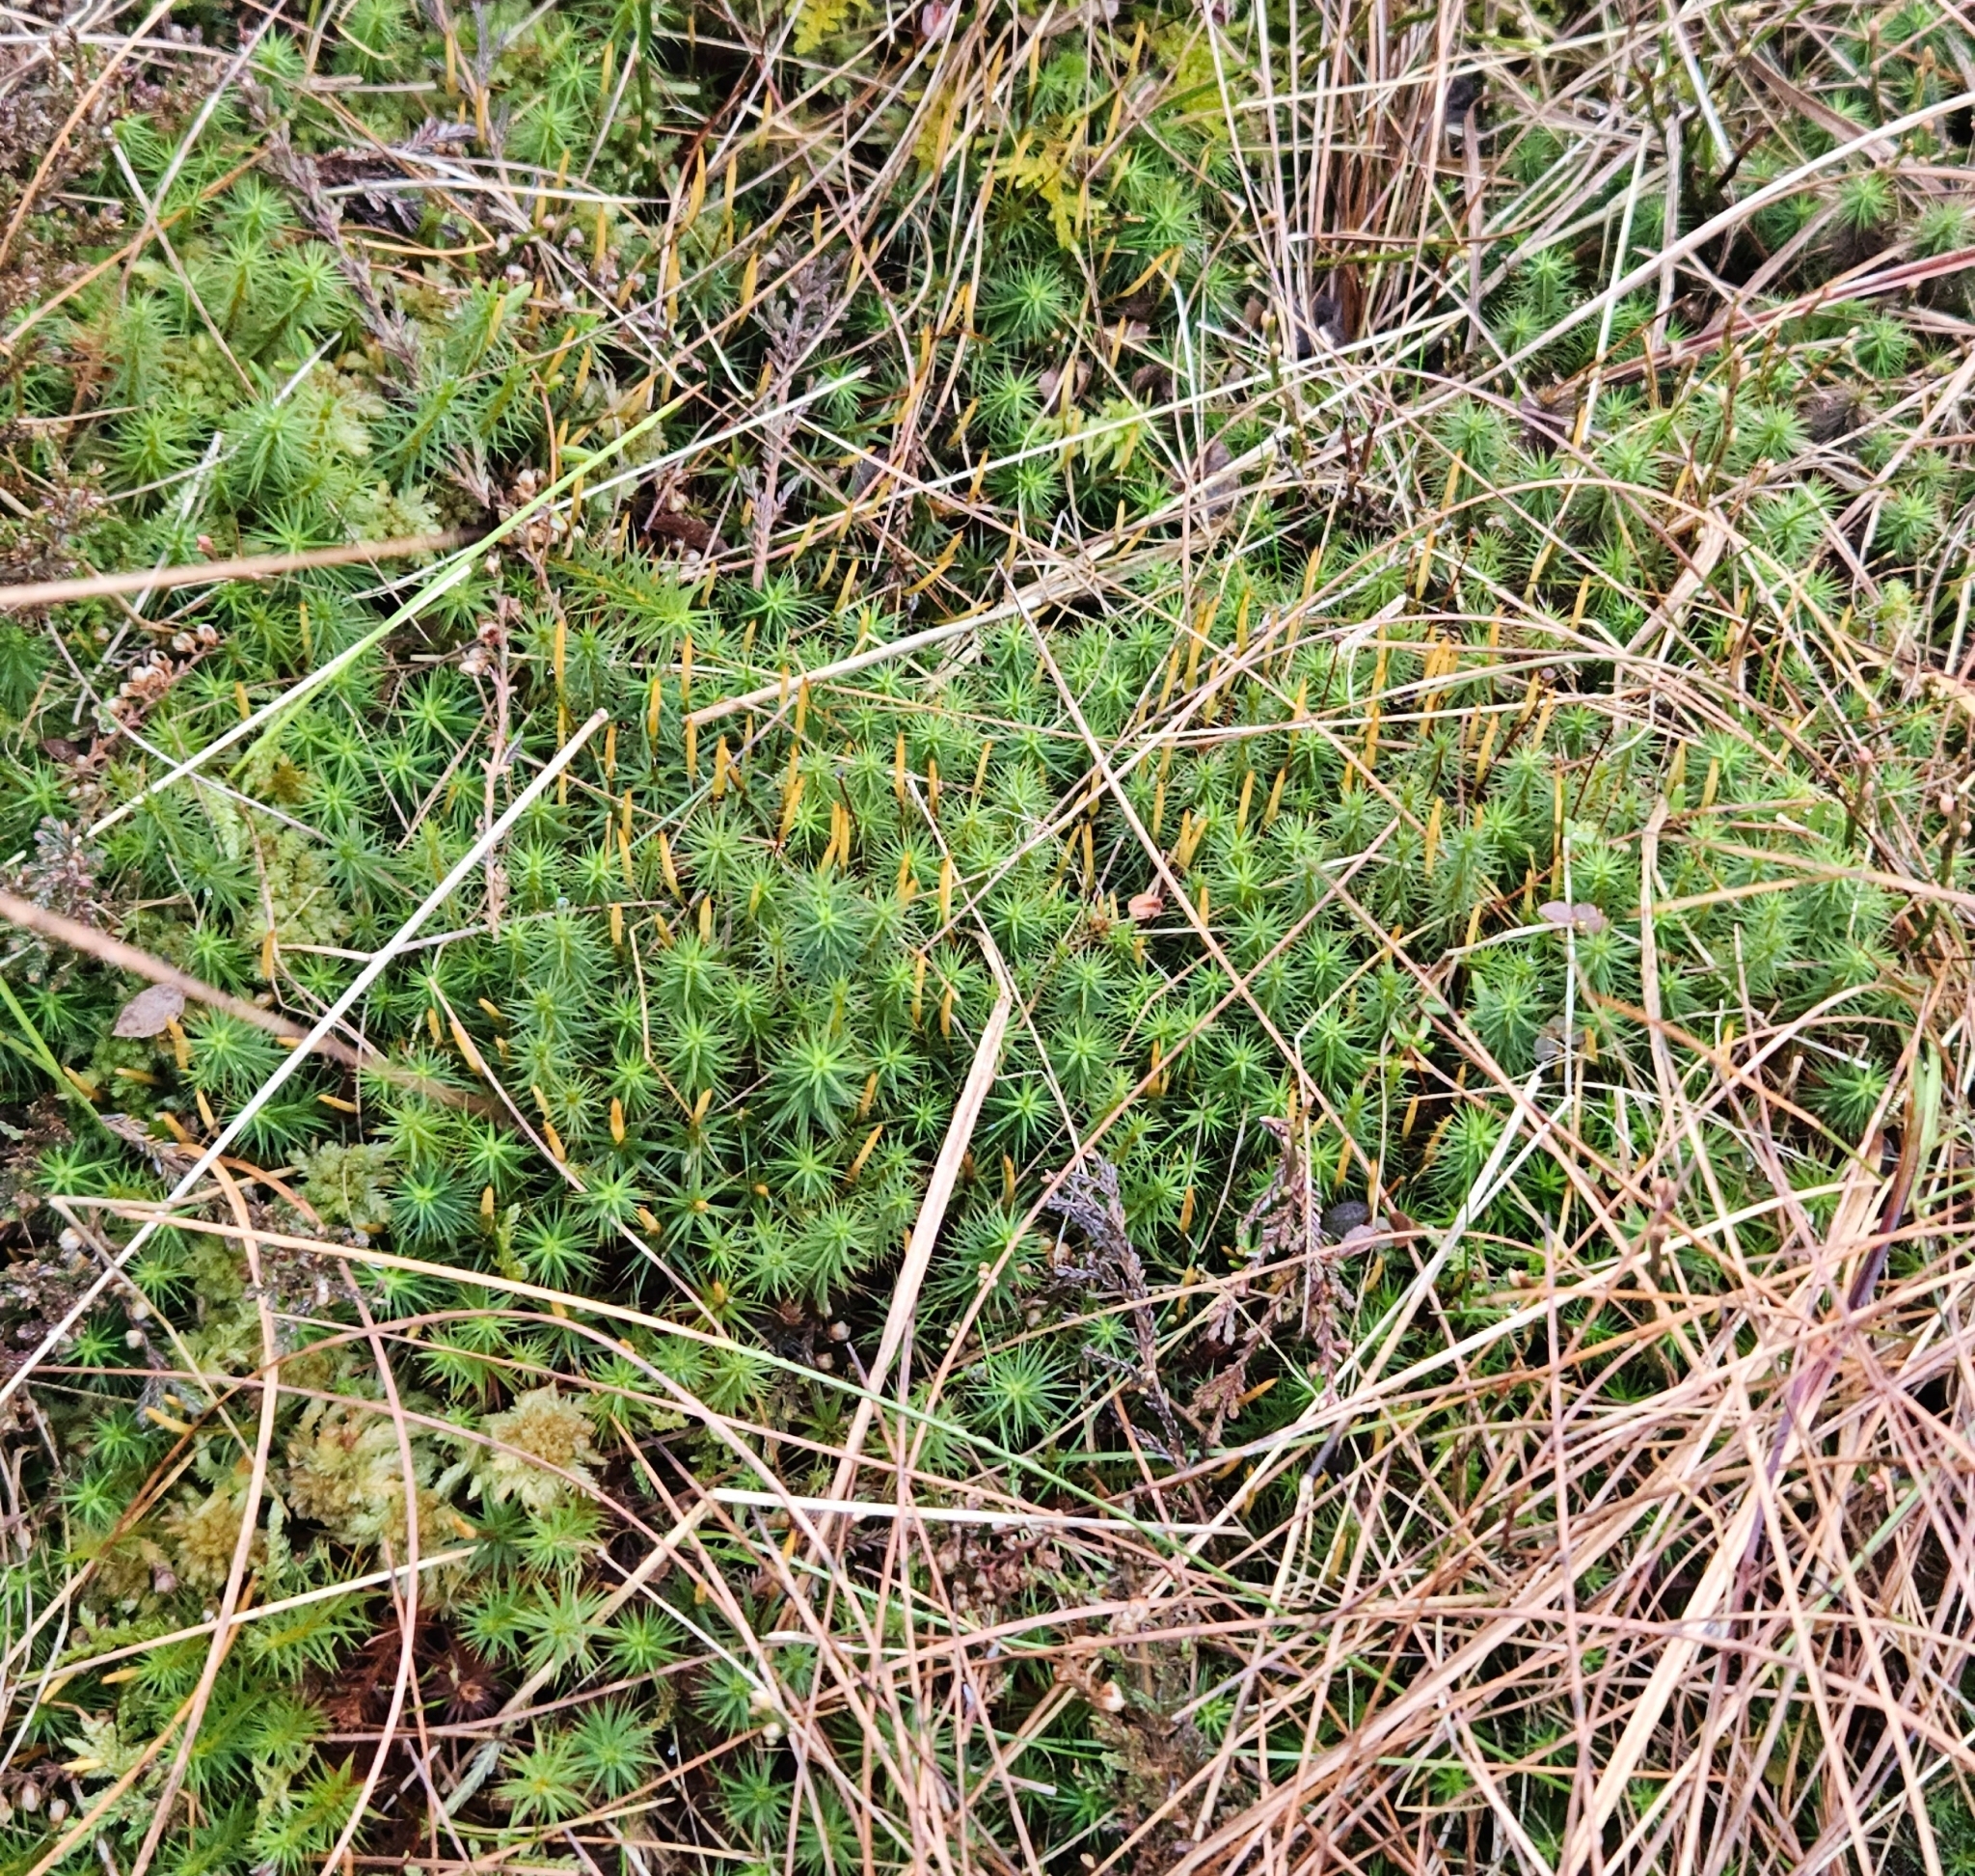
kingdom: Plantae
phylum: Bryophyta
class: Polytrichopsida
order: Polytrichales
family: Polytrichaceae
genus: Polytrichum
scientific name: Polytrichum commune
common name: Common haircap
